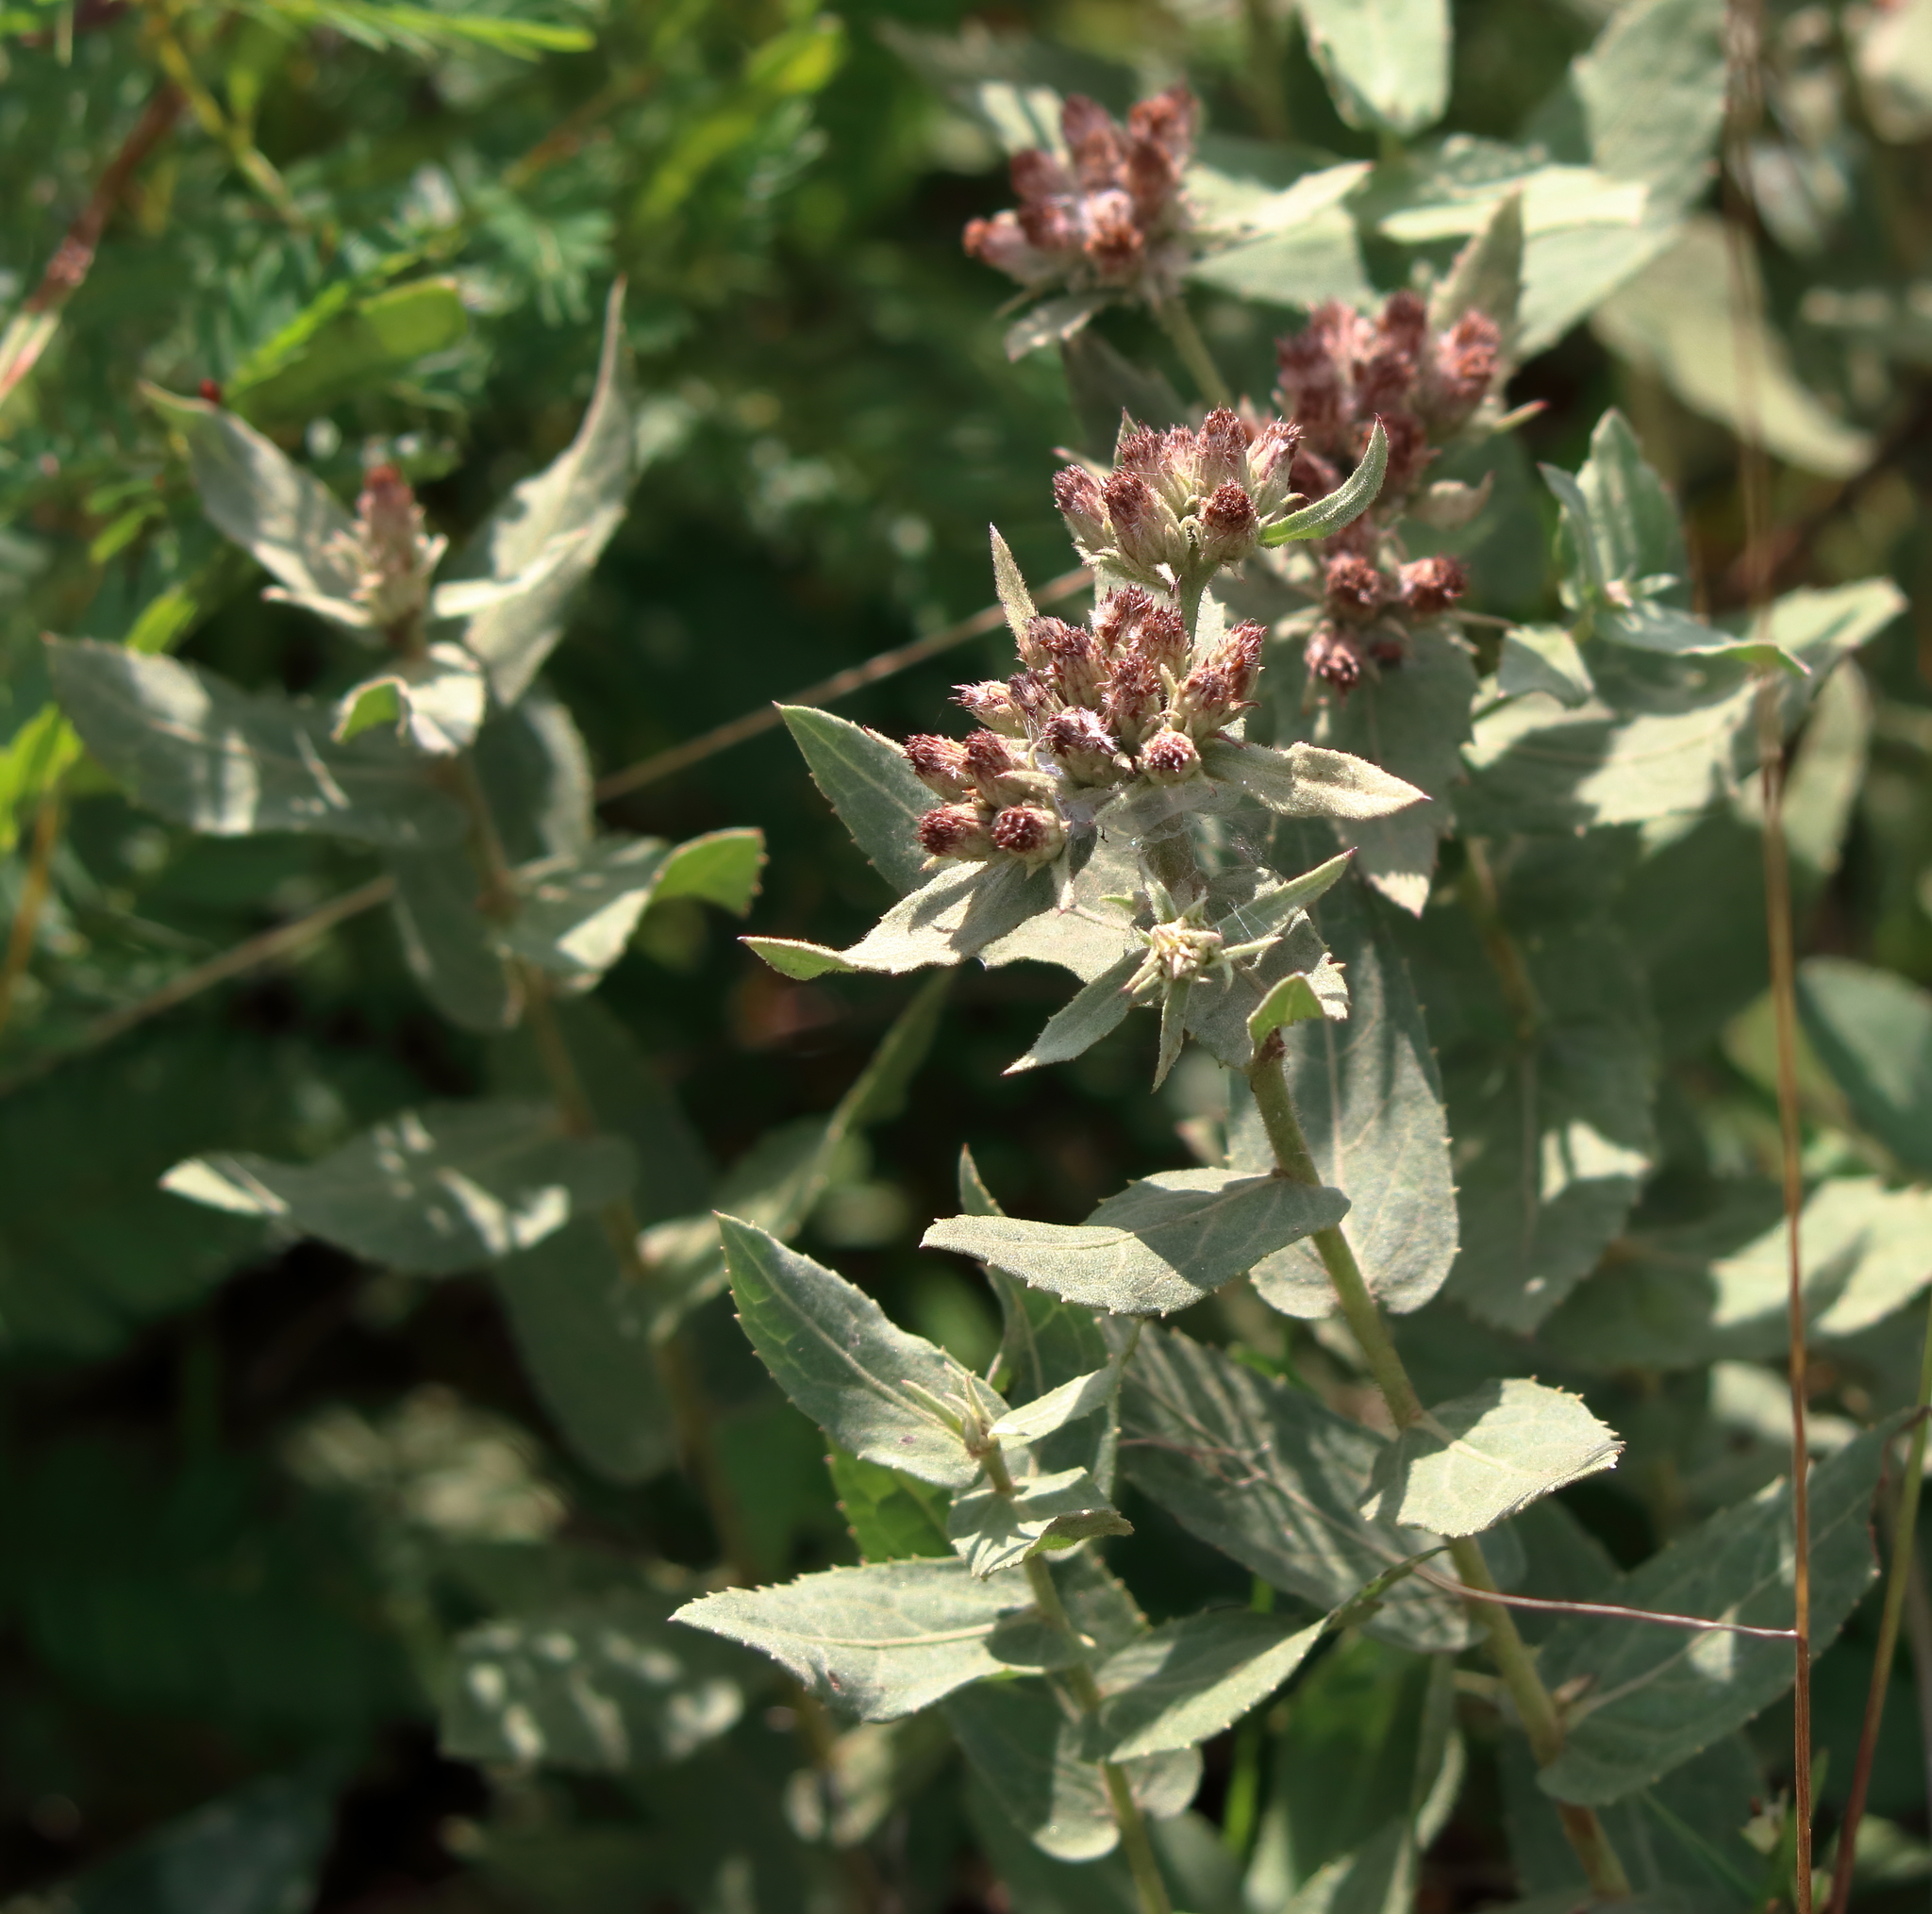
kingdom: Plantae
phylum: Tracheophyta
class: Magnoliopsida
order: Asterales
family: Asteraceae
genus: Pluchea
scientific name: Pluchea foetida
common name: Stinking camphorweed
